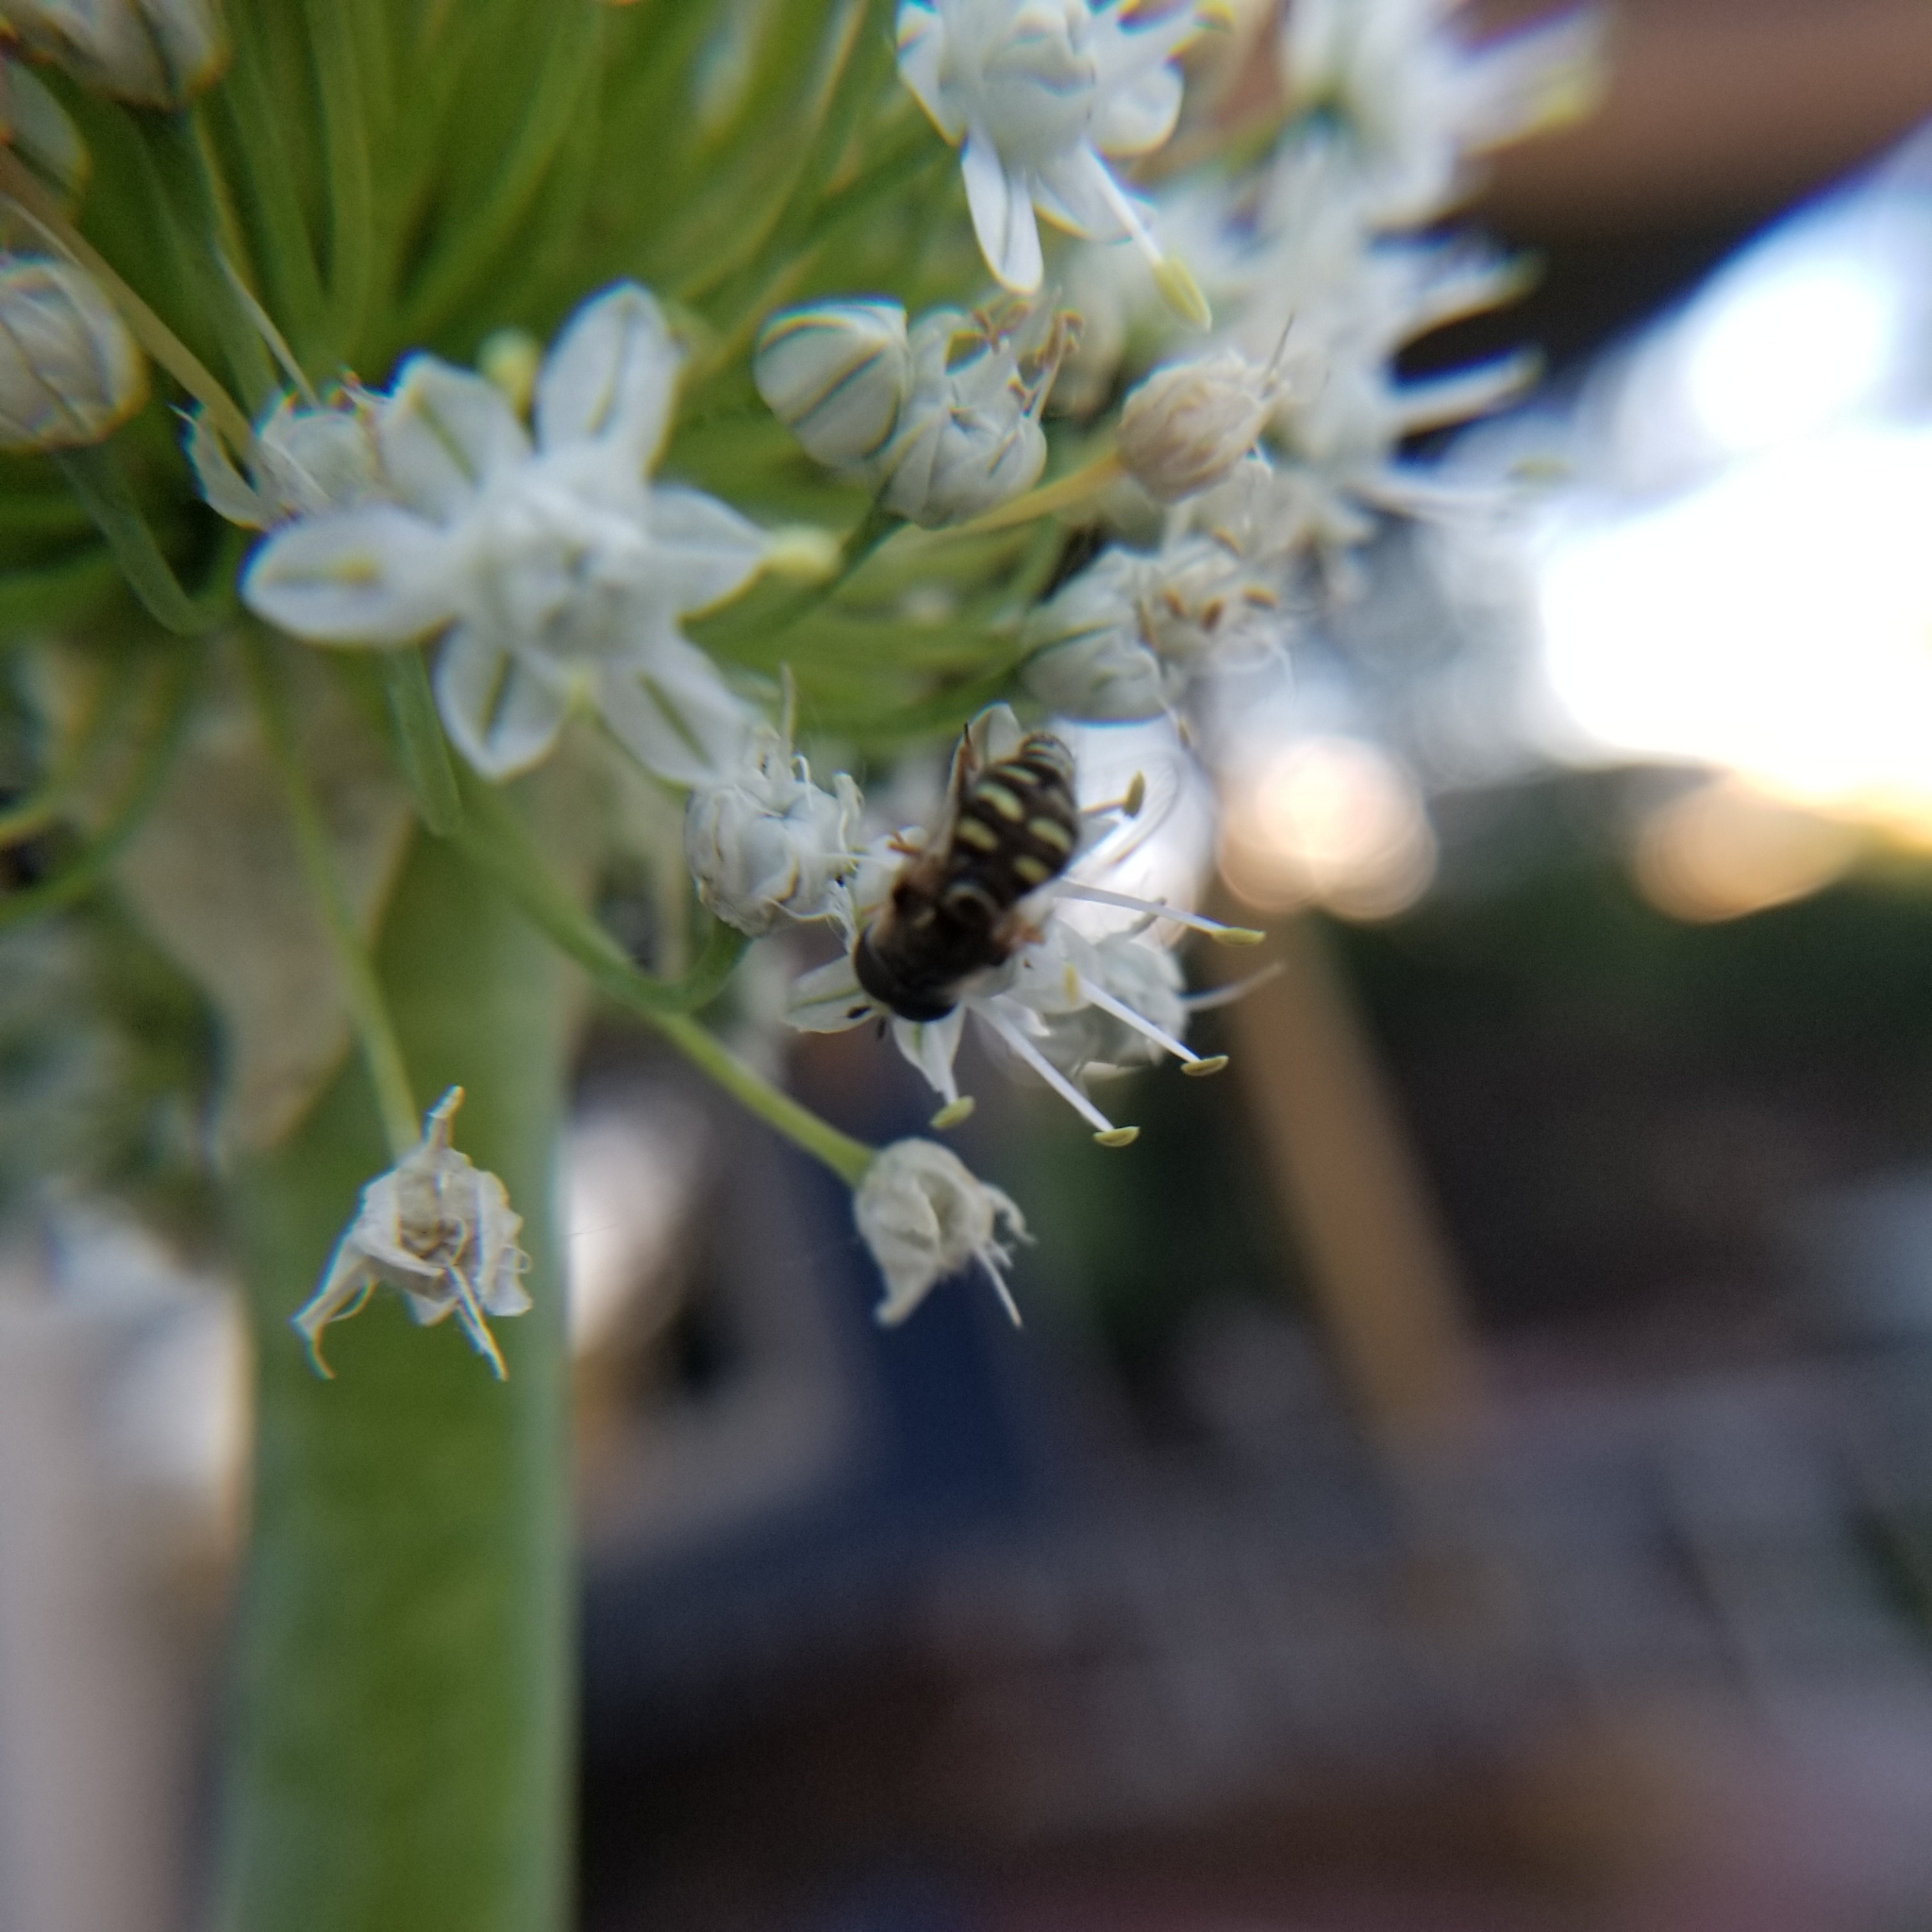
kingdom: Animalia
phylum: Arthropoda
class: Insecta
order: Diptera
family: Syrphidae
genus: Eupeodes
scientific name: Eupeodes volucris
